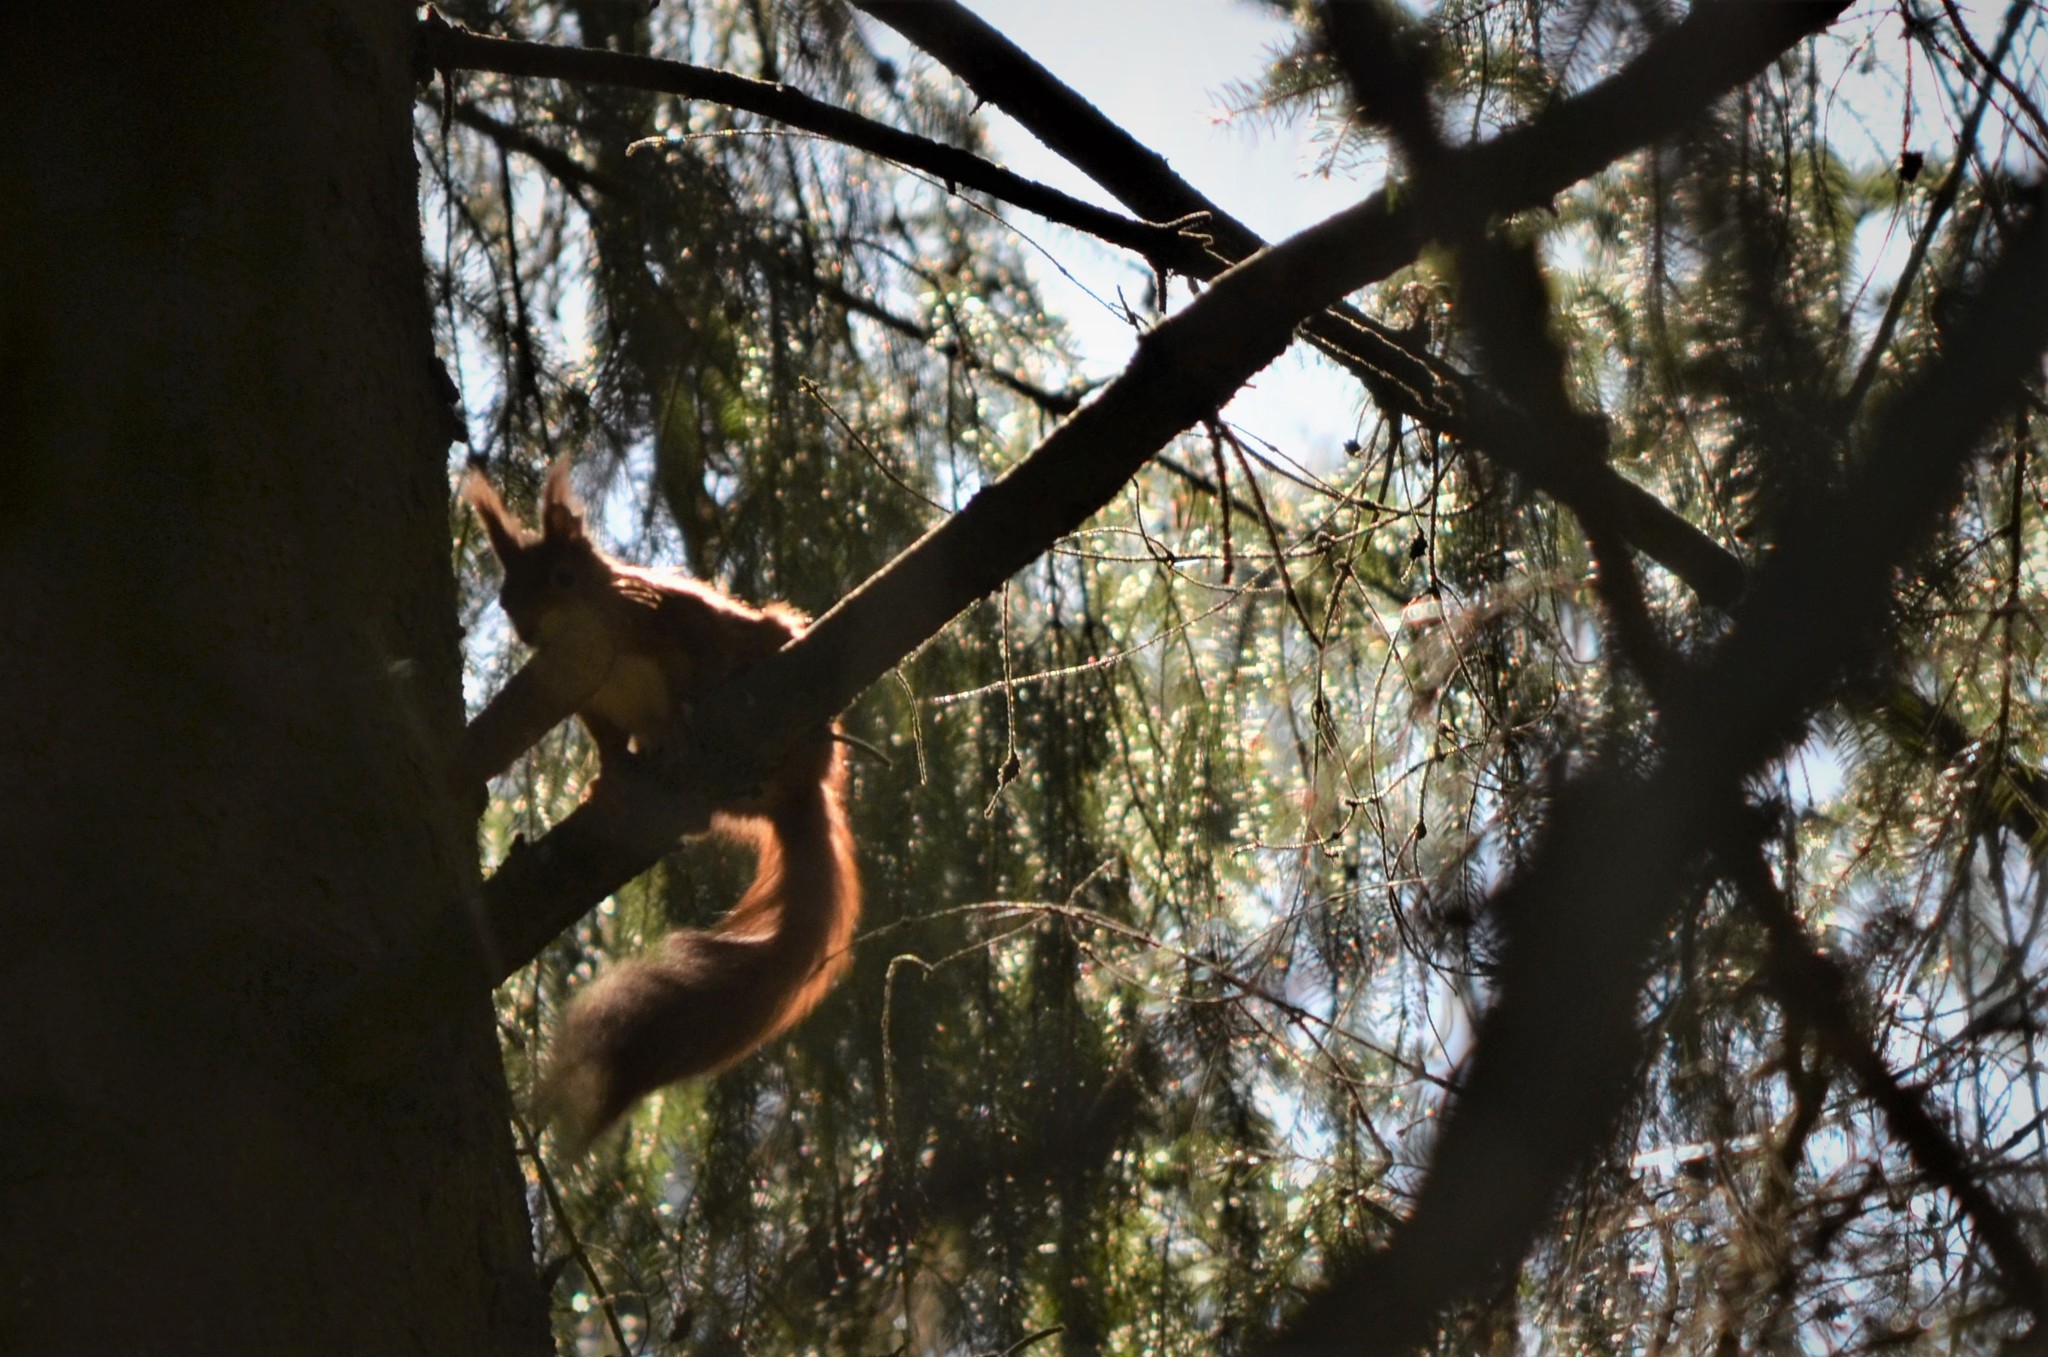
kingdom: Animalia
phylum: Chordata
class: Mammalia
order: Rodentia
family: Sciuridae
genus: Sciurus
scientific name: Sciurus vulgaris
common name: Eurasian red squirrel
